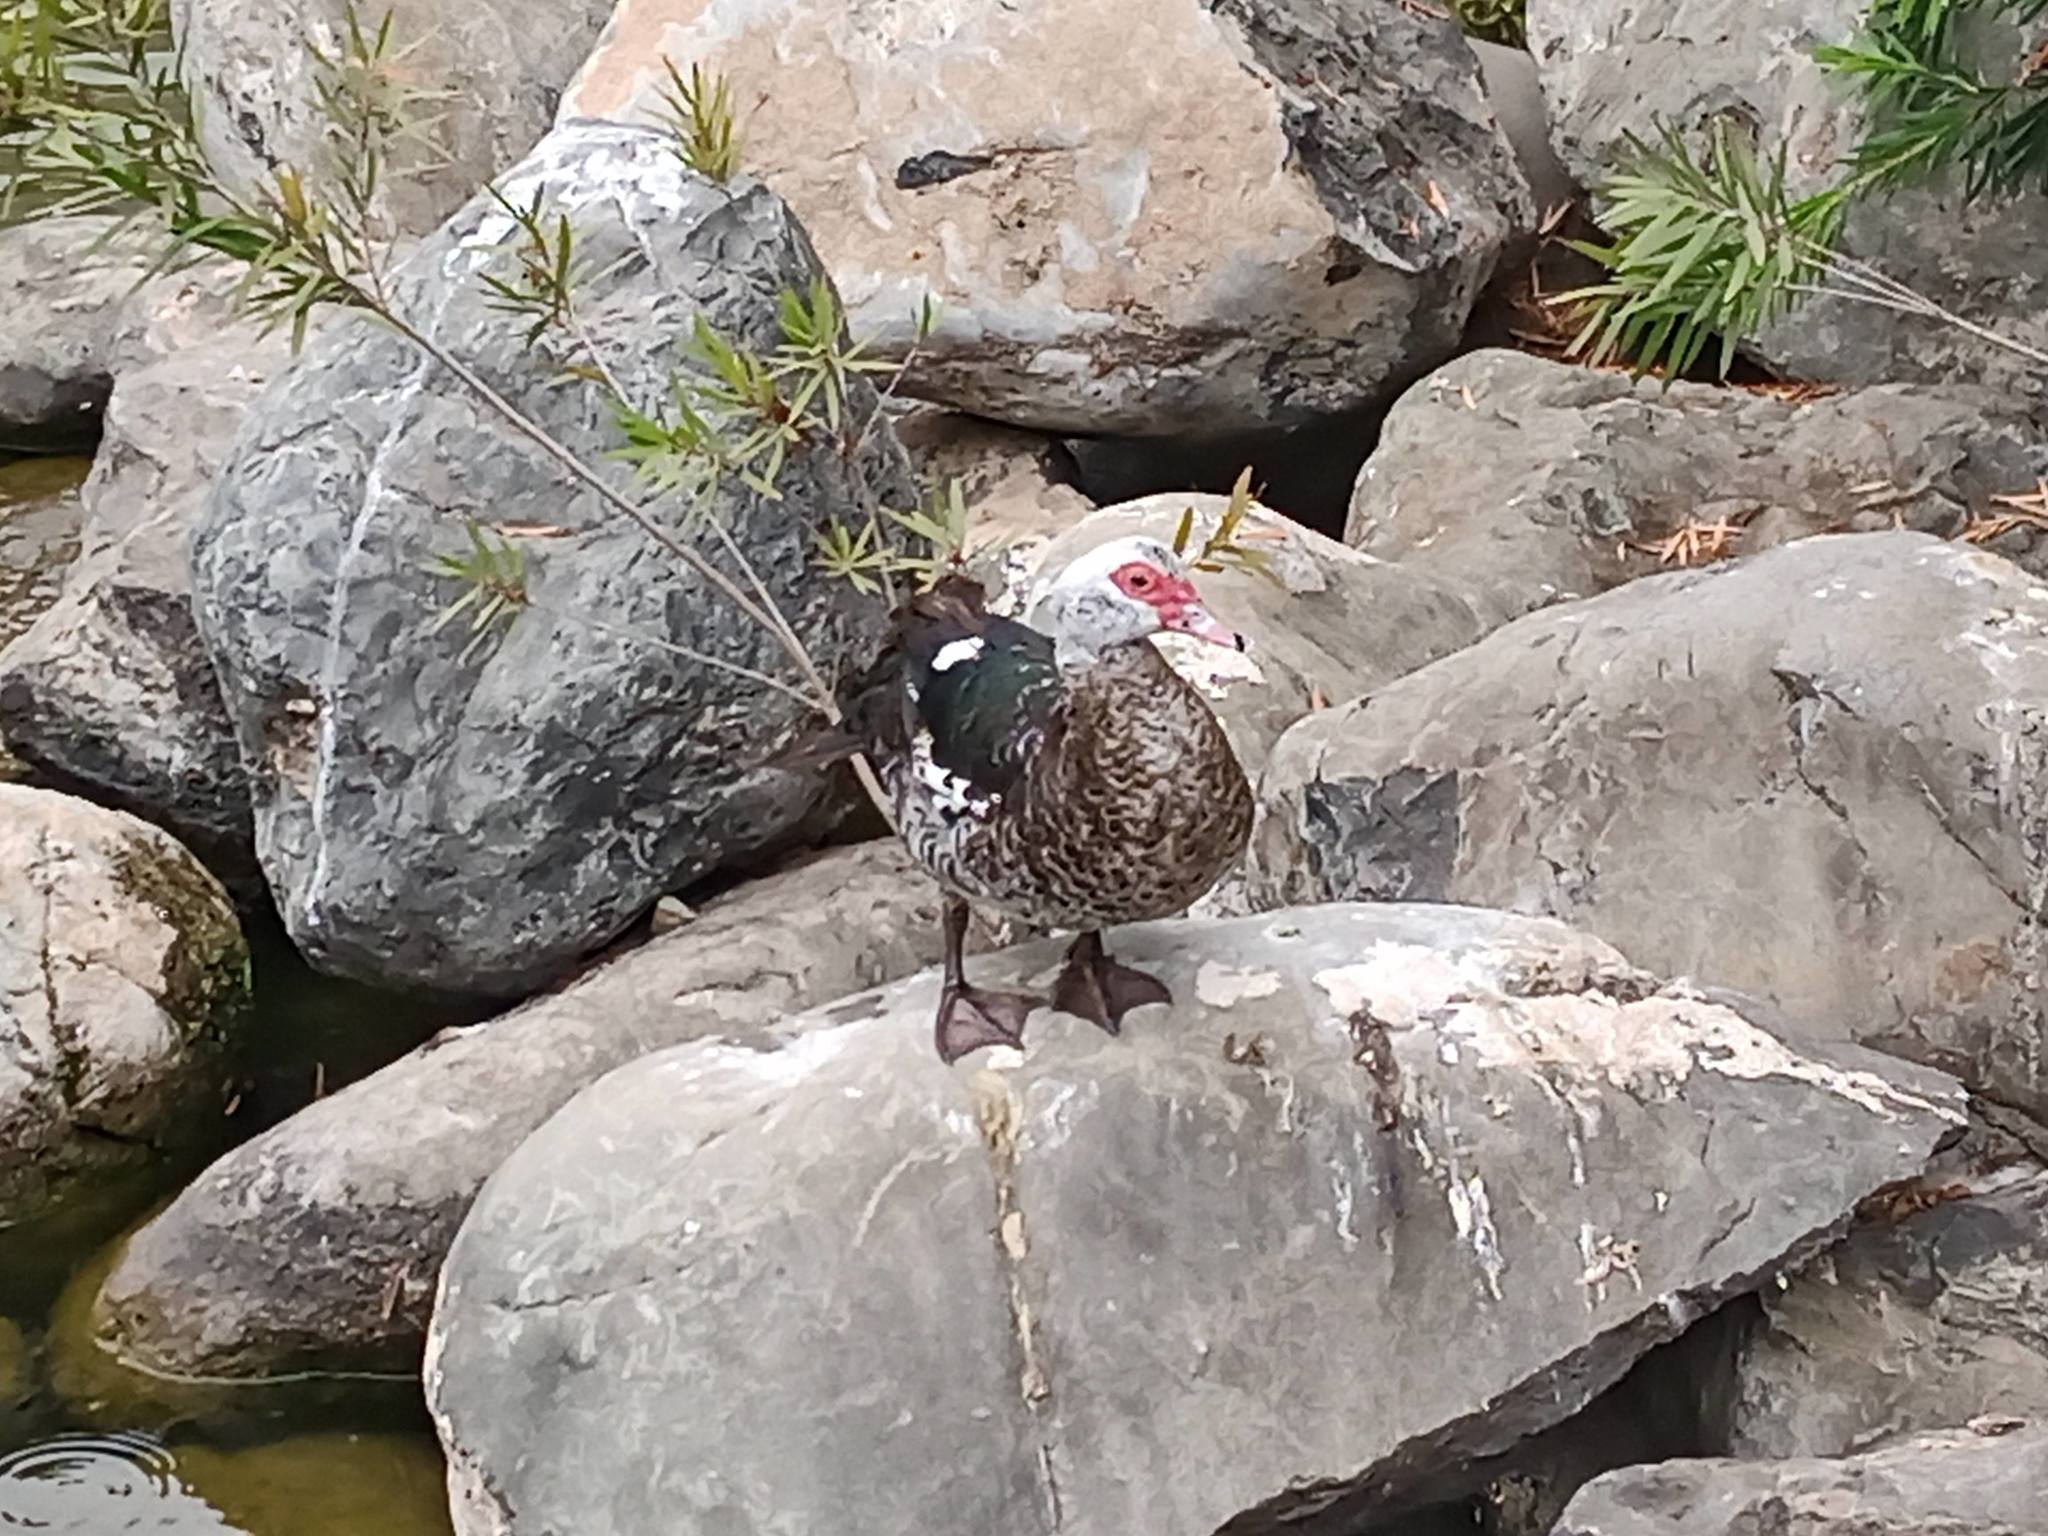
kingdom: Animalia
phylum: Chordata
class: Aves
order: Anseriformes
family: Anatidae
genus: Cairina
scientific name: Cairina moschata
